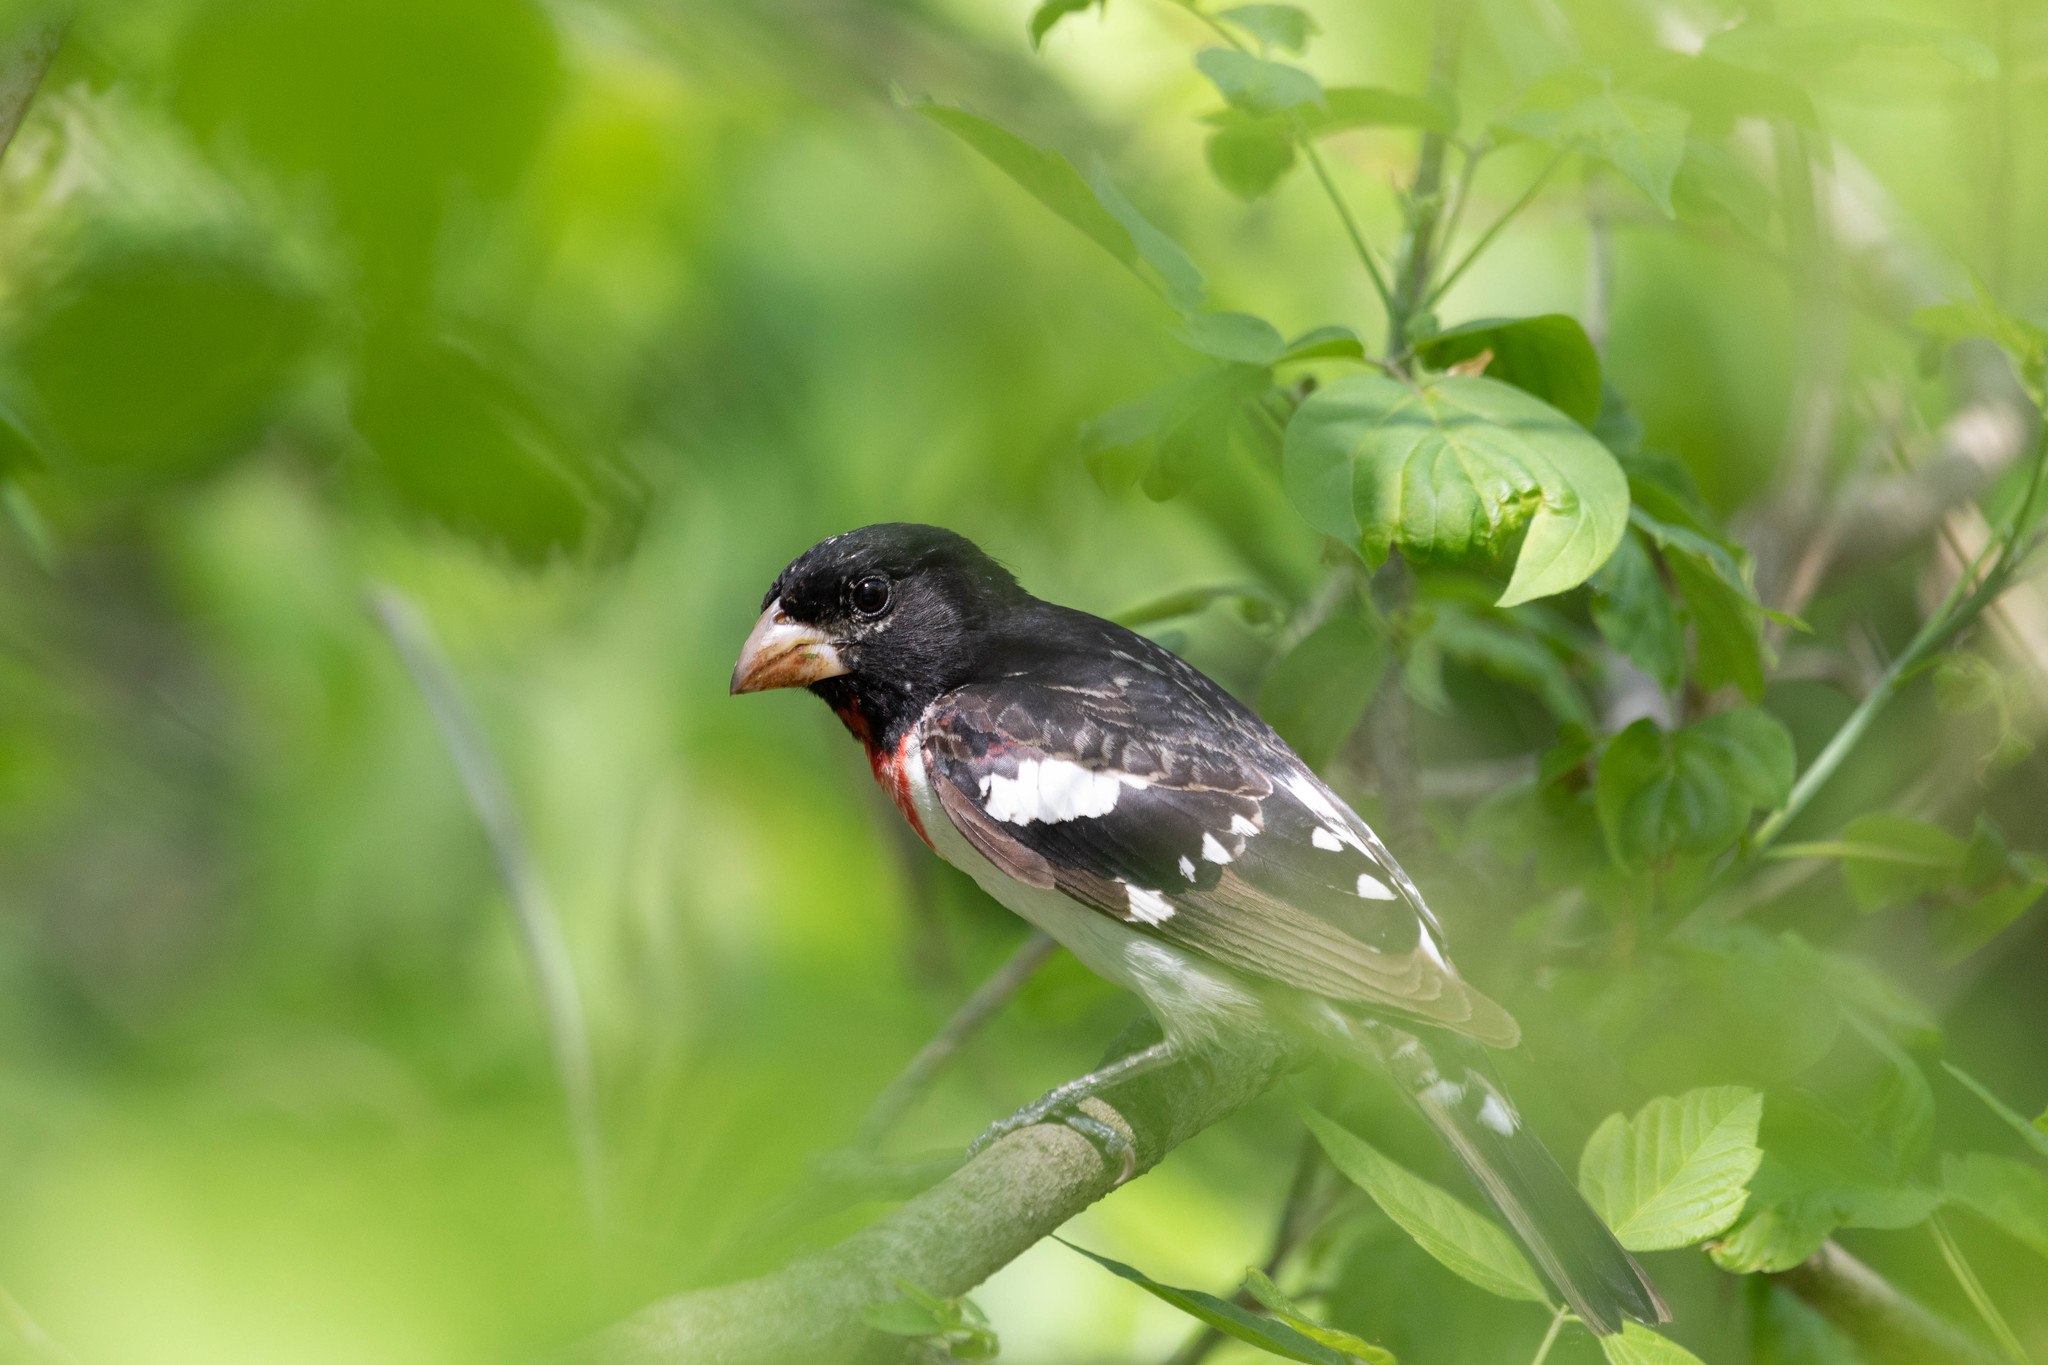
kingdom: Animalia
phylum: Chordata
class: Aves
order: Passeriformes
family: Cardinalidae
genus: Pheucticus
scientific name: Pheucticus ludovicianus
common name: Rose-breasted grosbeak
